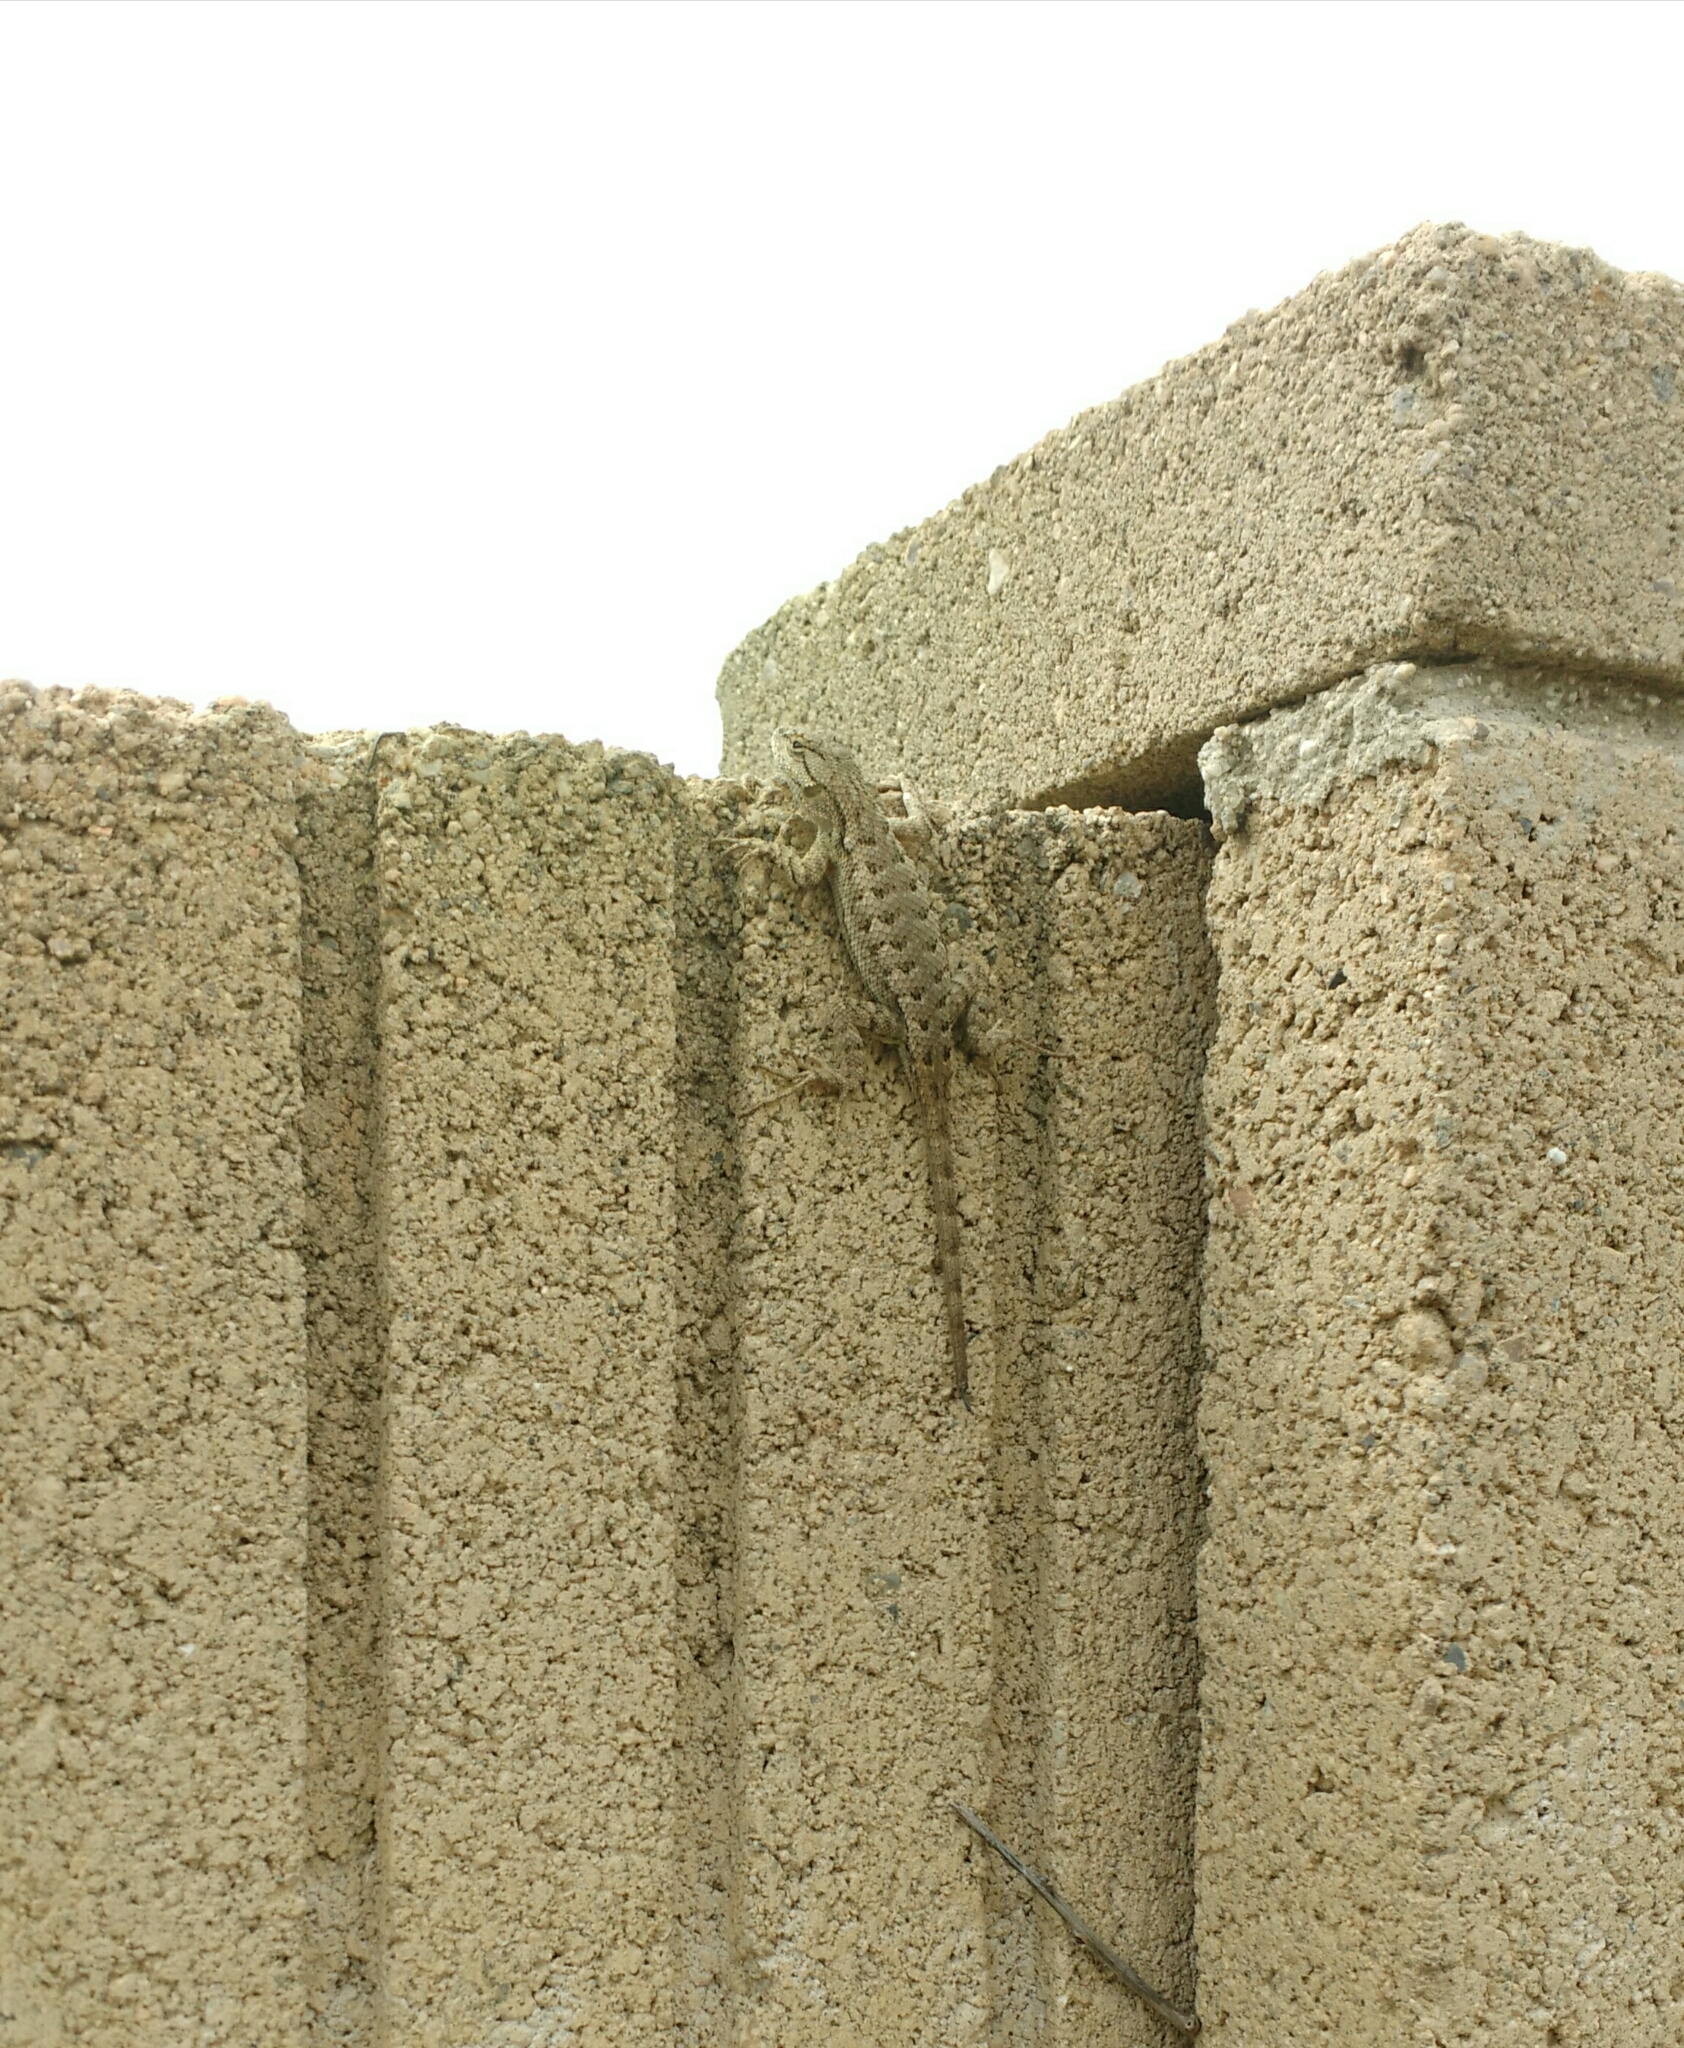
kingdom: Animalia
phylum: Chordata
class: Squamata
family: Phrynosomatidae
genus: Sceloporus
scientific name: Sceloporus occidentalis
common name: Western fence lizard
